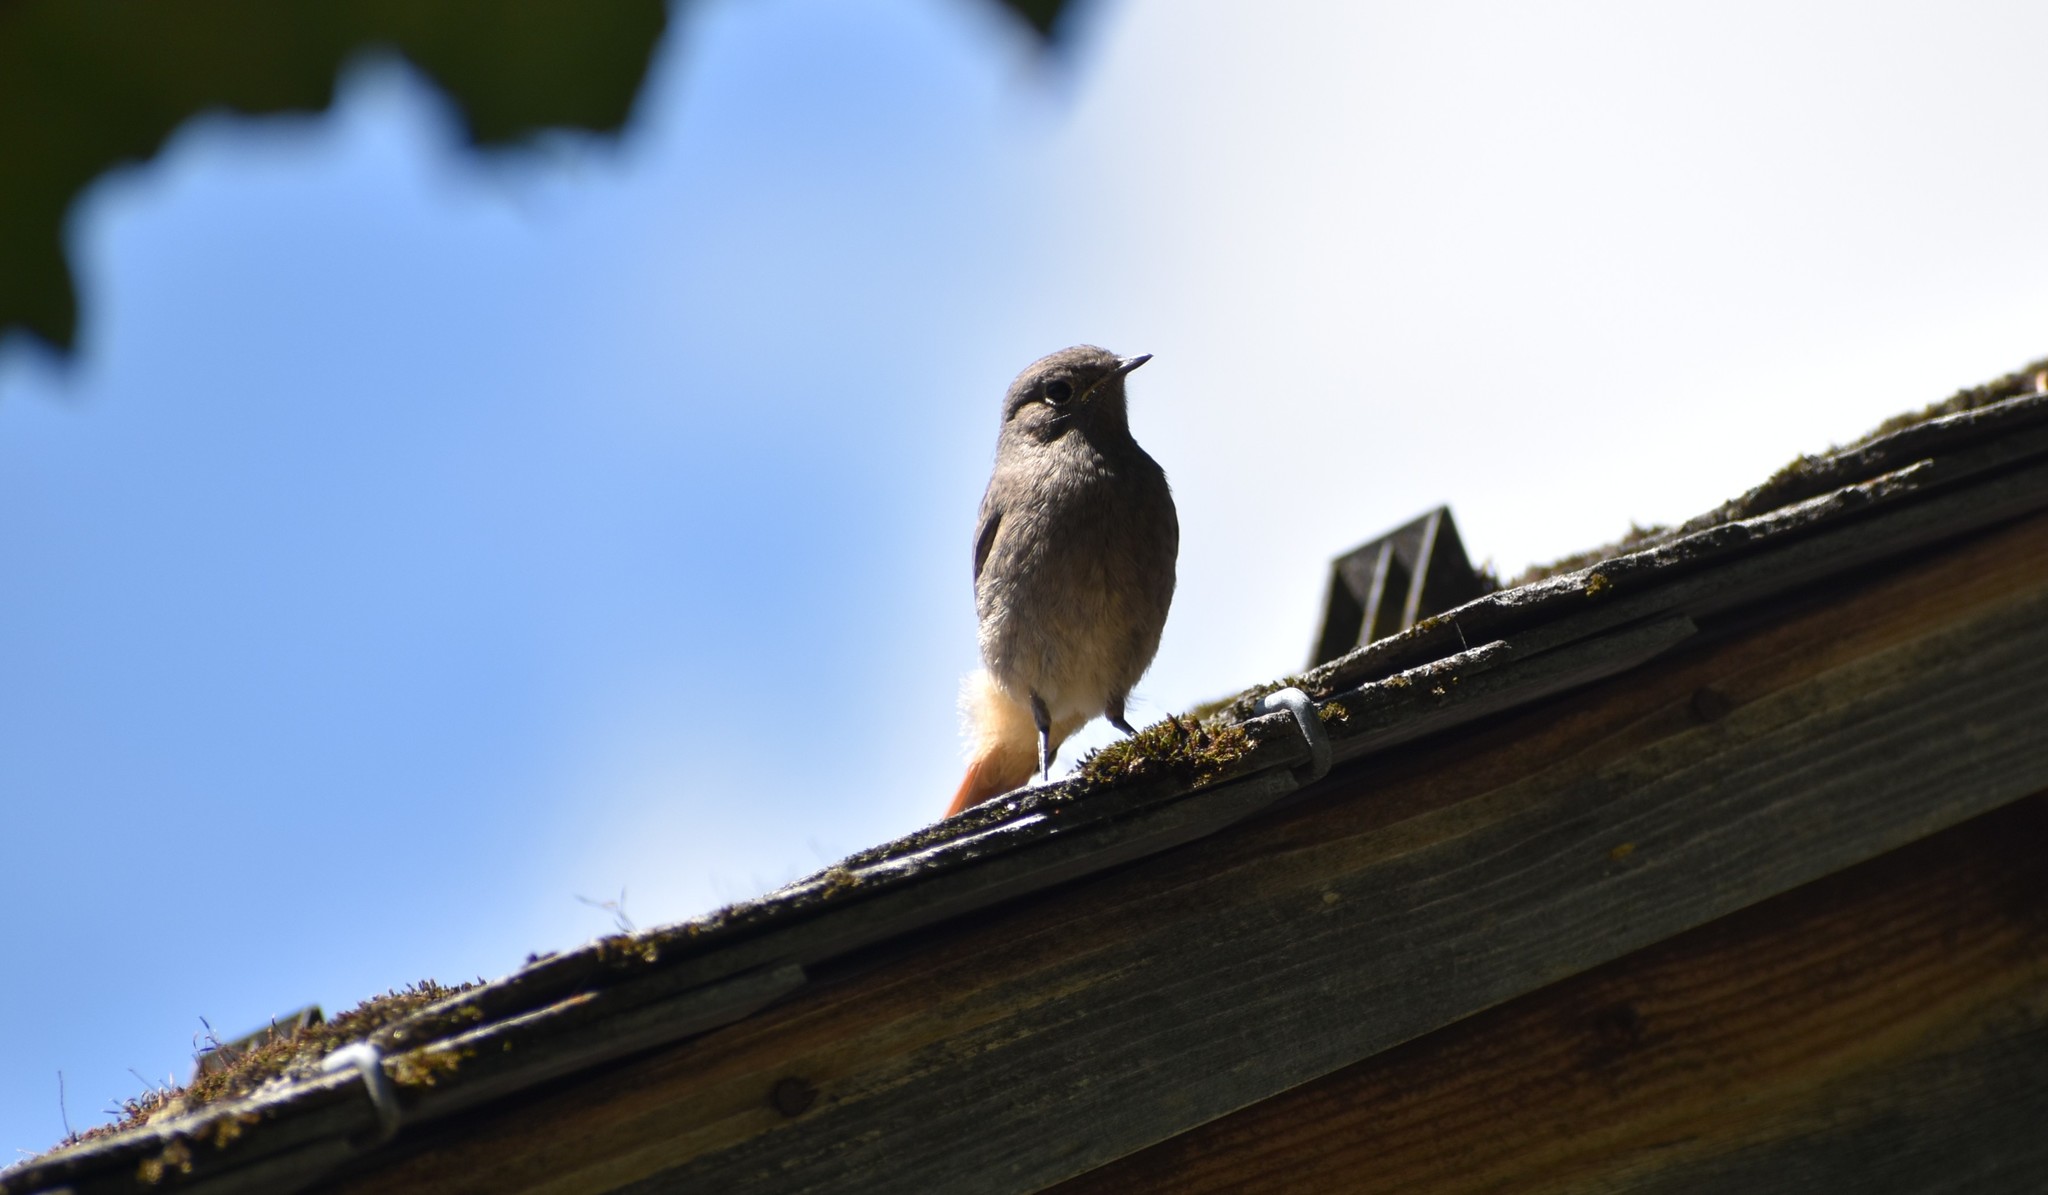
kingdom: Animalia
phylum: Chordata
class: Aves
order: Passeriformes
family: Muscicapidae
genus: Phoenicurus
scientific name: Phoenicurus ochruros
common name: Black redstart
